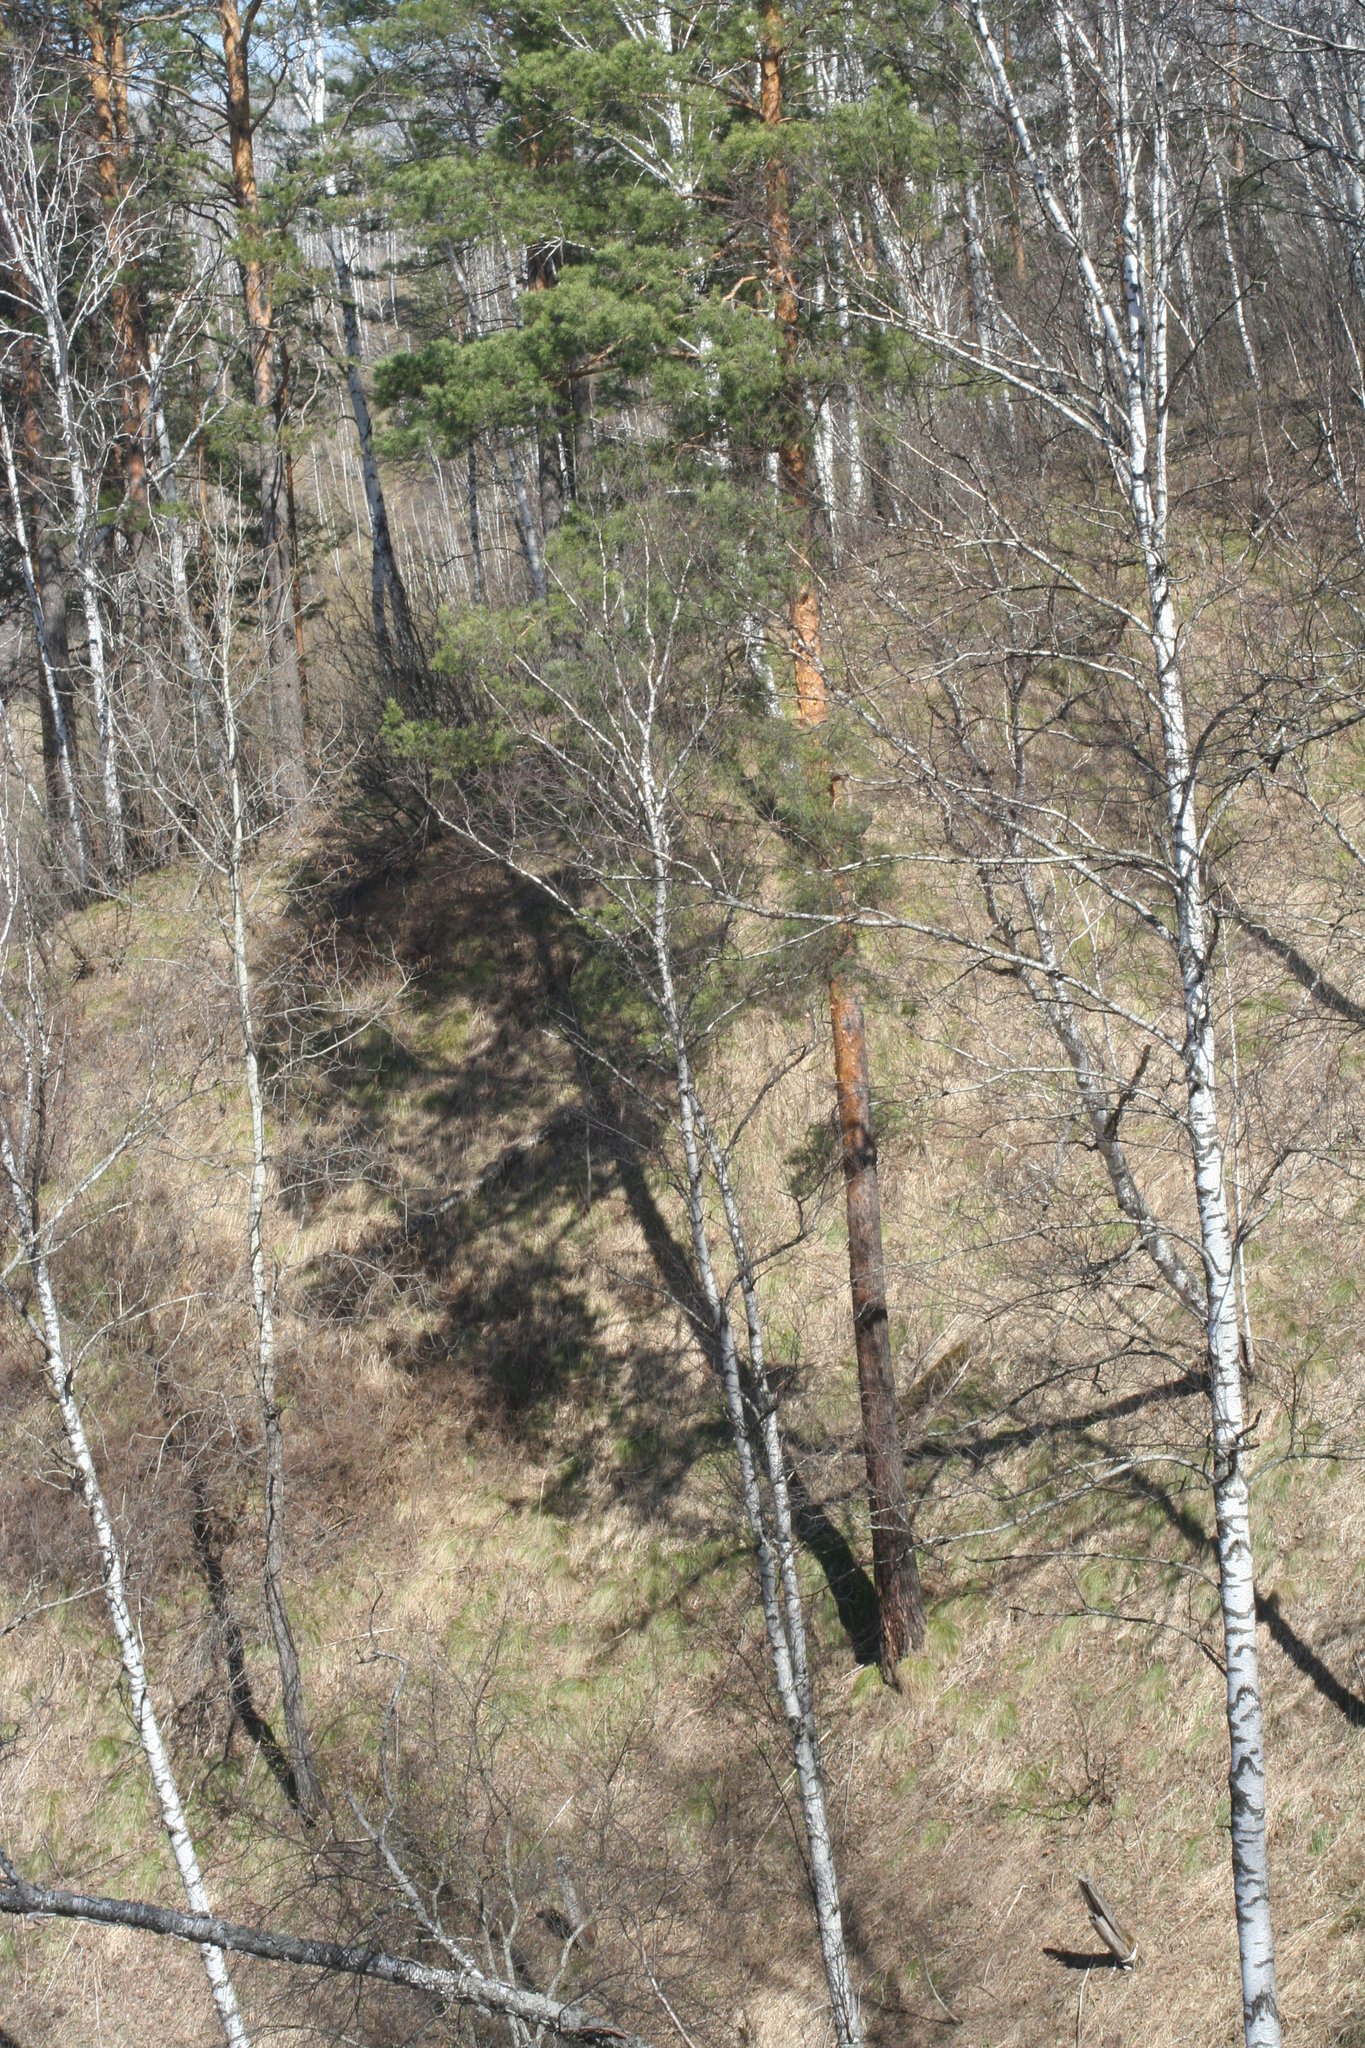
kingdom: Plantae
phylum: Tracheophyta
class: Pinopsida
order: Pinales
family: Pinaceae
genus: Pinus
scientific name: Pinus sylvestris
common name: Scots pine
